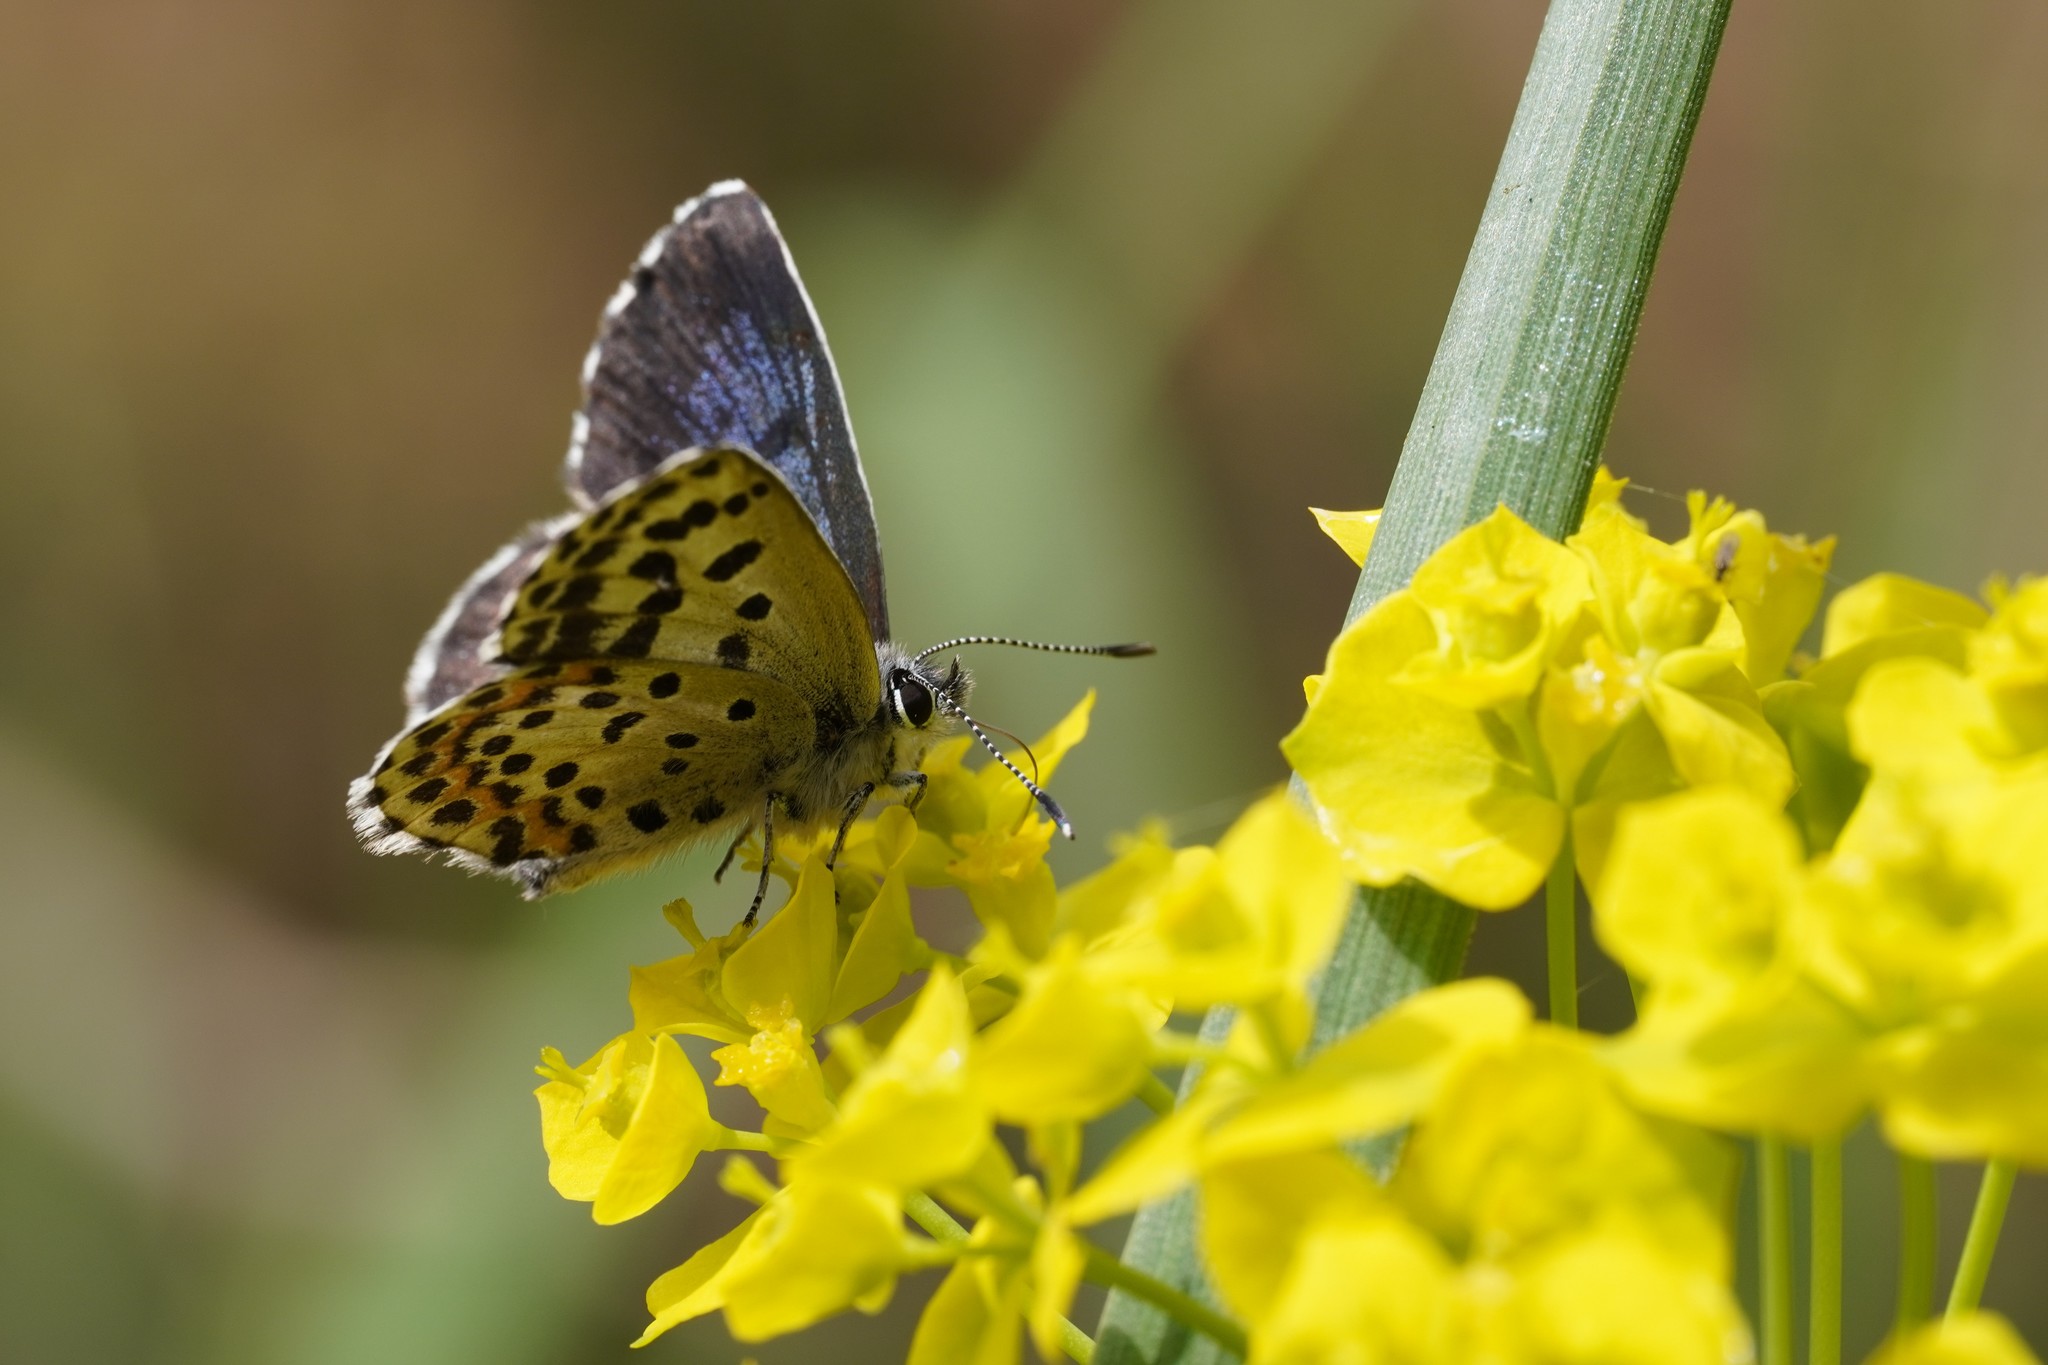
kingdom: Animalia
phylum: Arthropoda
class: Insecta
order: Lepidoptera
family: Lycaenidae
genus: Scolitantides
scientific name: Scolitantides orion
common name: Chequered blue
